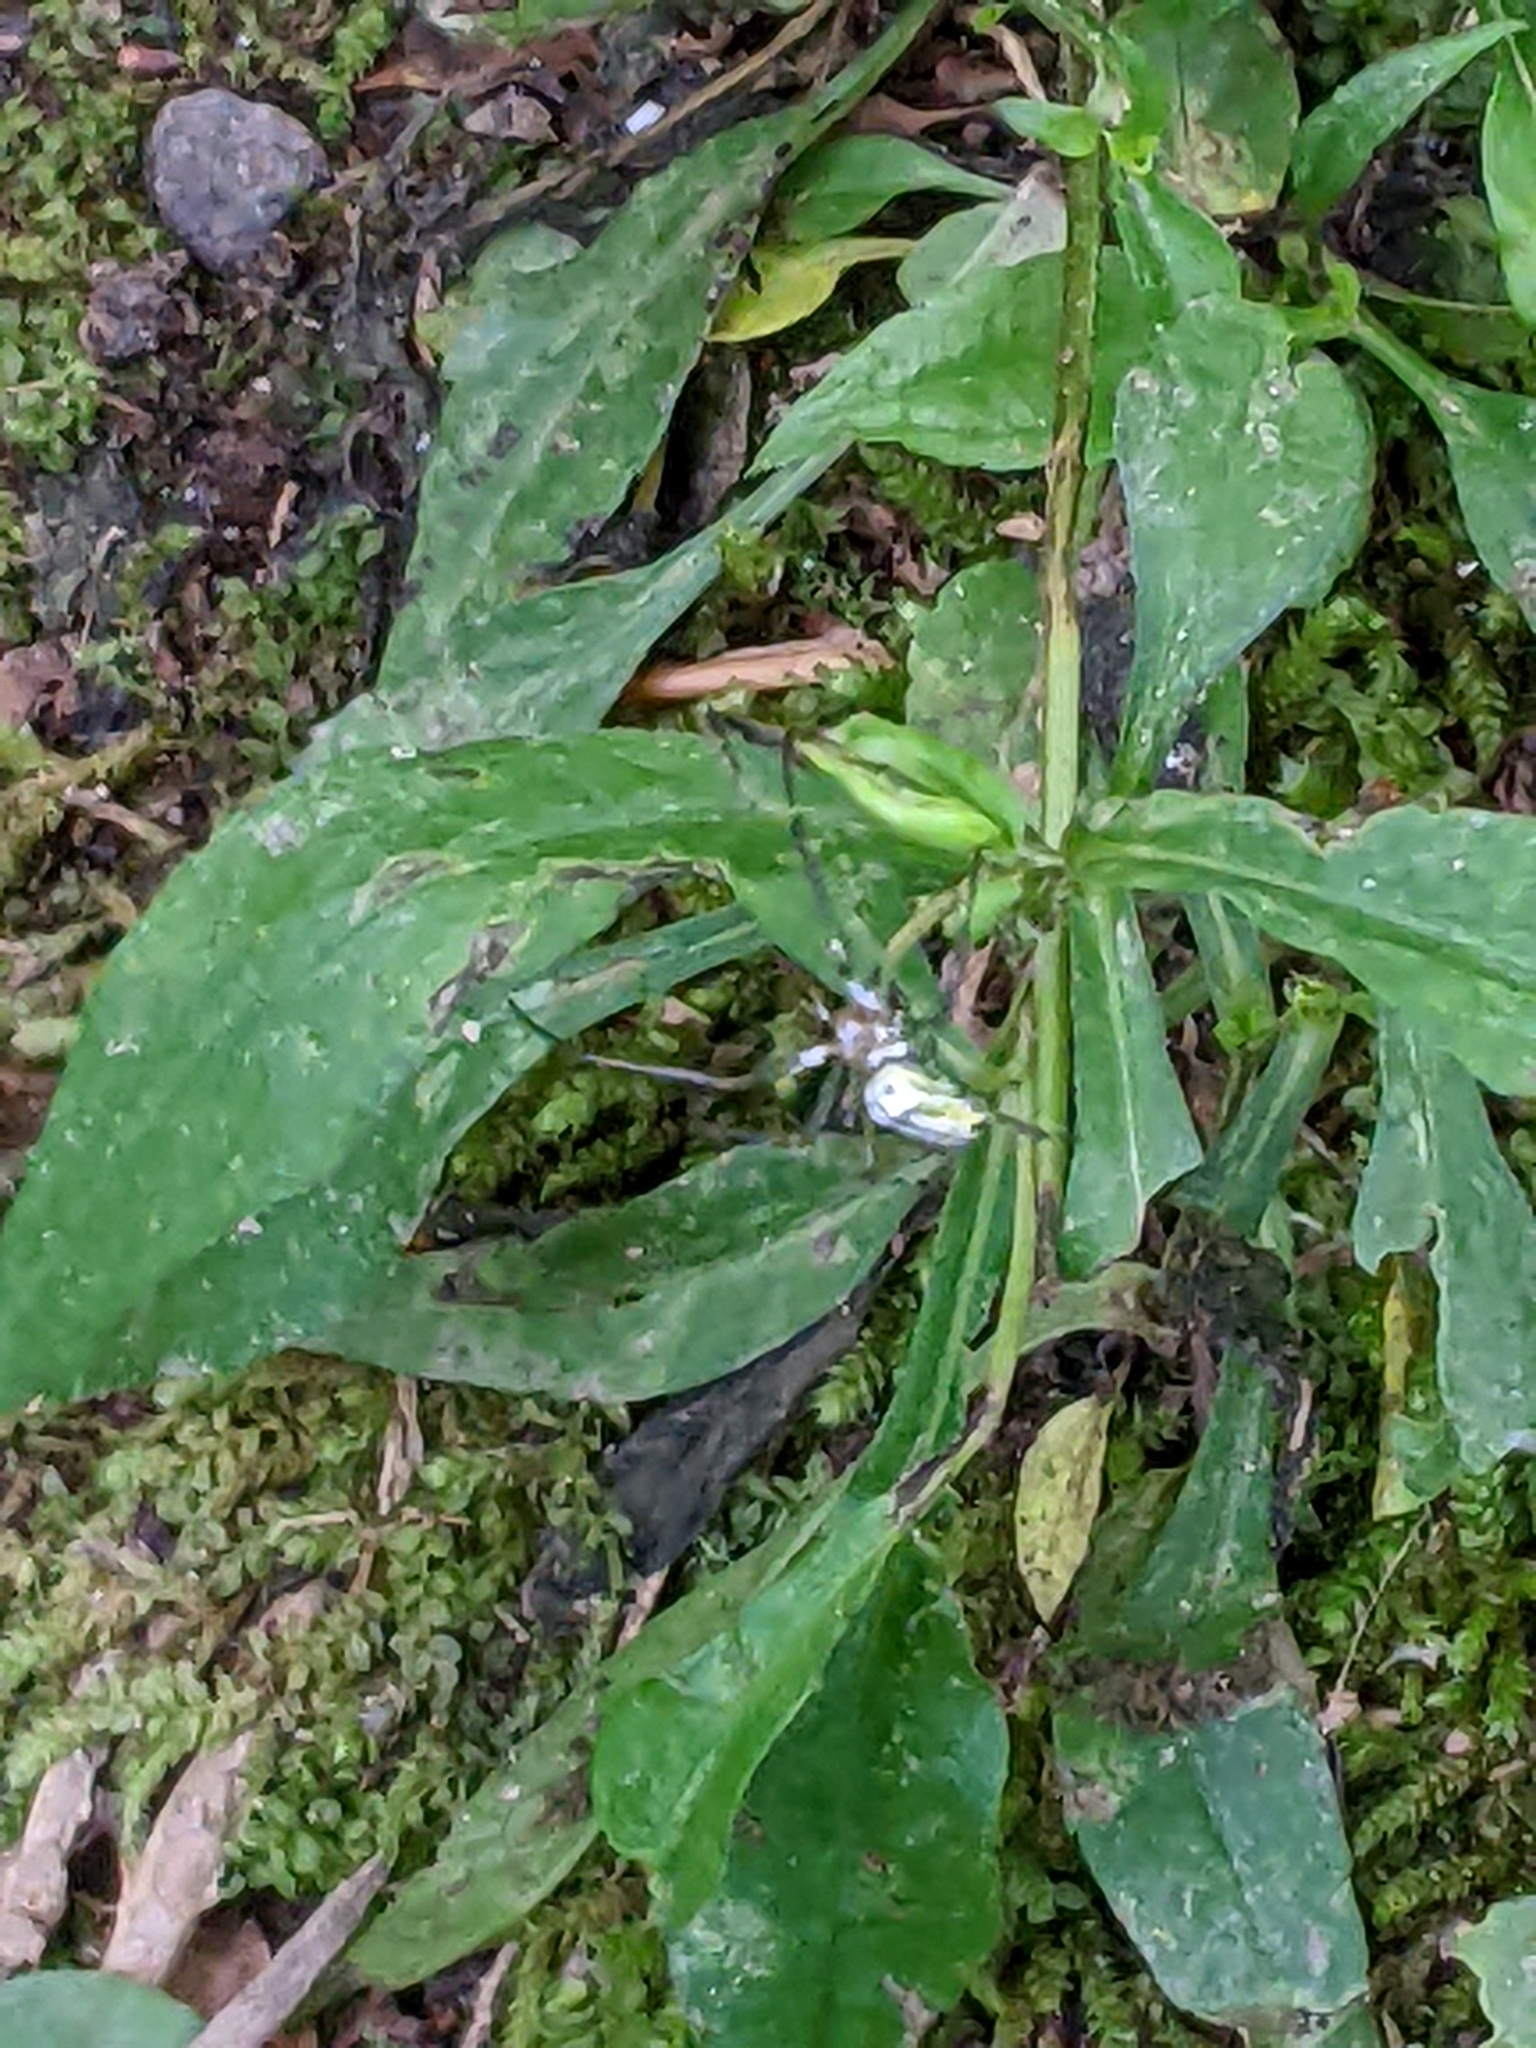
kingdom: Animalia
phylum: Arthropoda
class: Arachnida
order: Araneae
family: Tetragnathidae
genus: Leucauge
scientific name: Leucauge venusta
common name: Longjawed orb weavers
